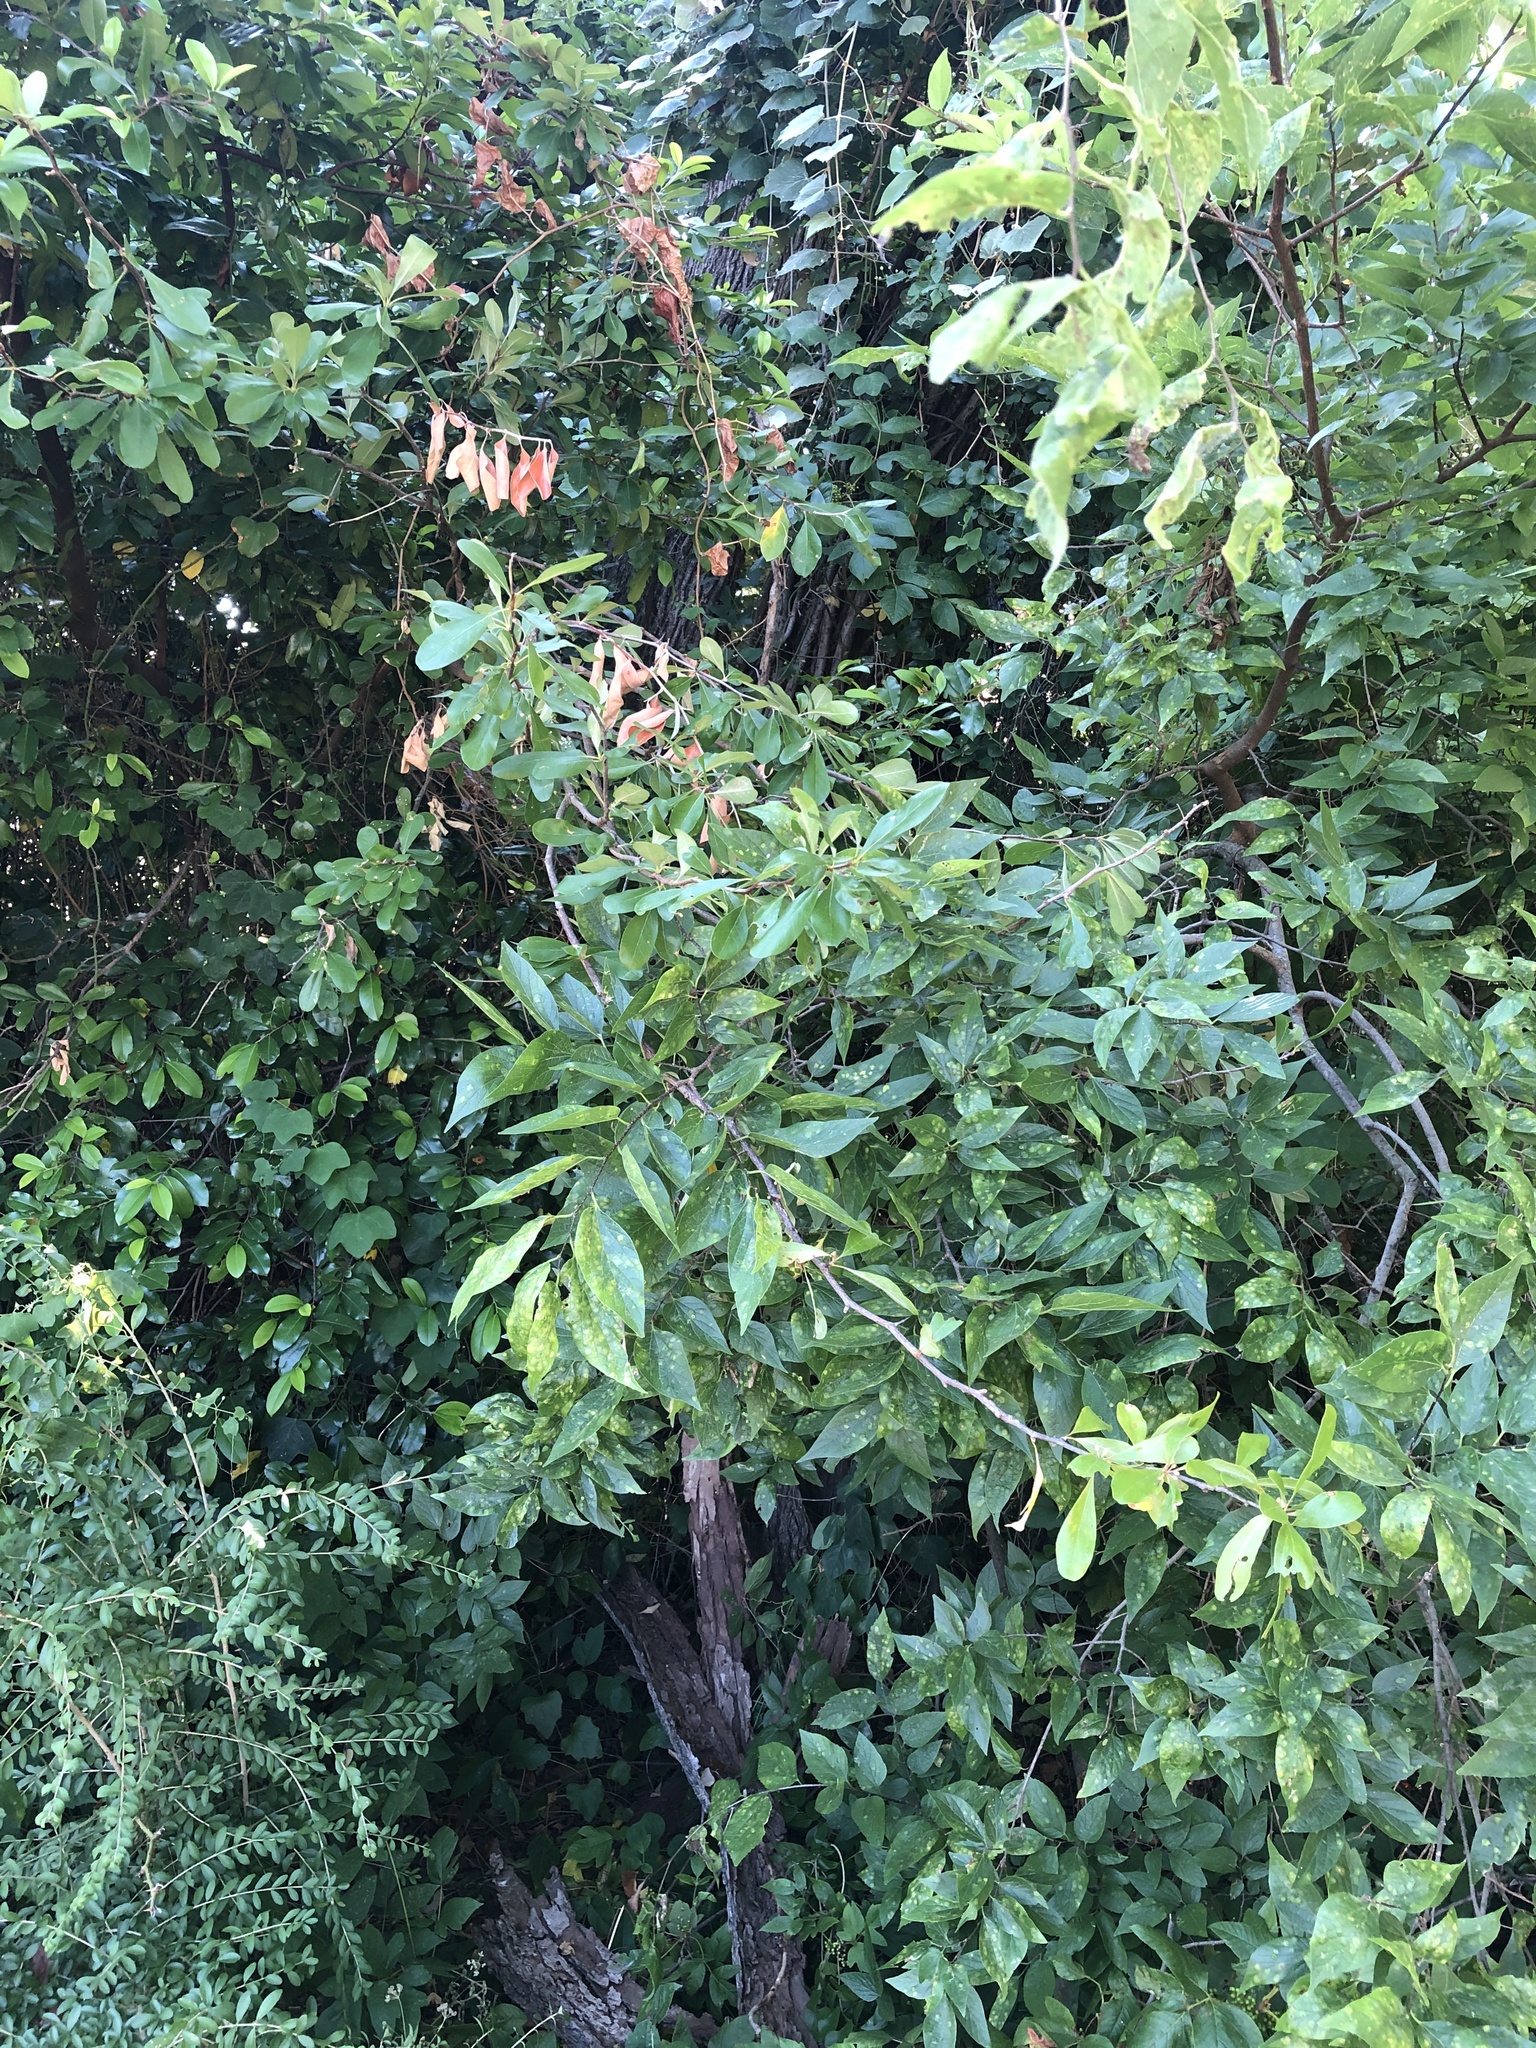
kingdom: Plantae
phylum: Tracheophyta
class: Magnoliopsida
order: Ericales
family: Sapotaceae
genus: Sideroxylon
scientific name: Sideroxylon lanuginosum
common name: Chittamwood
